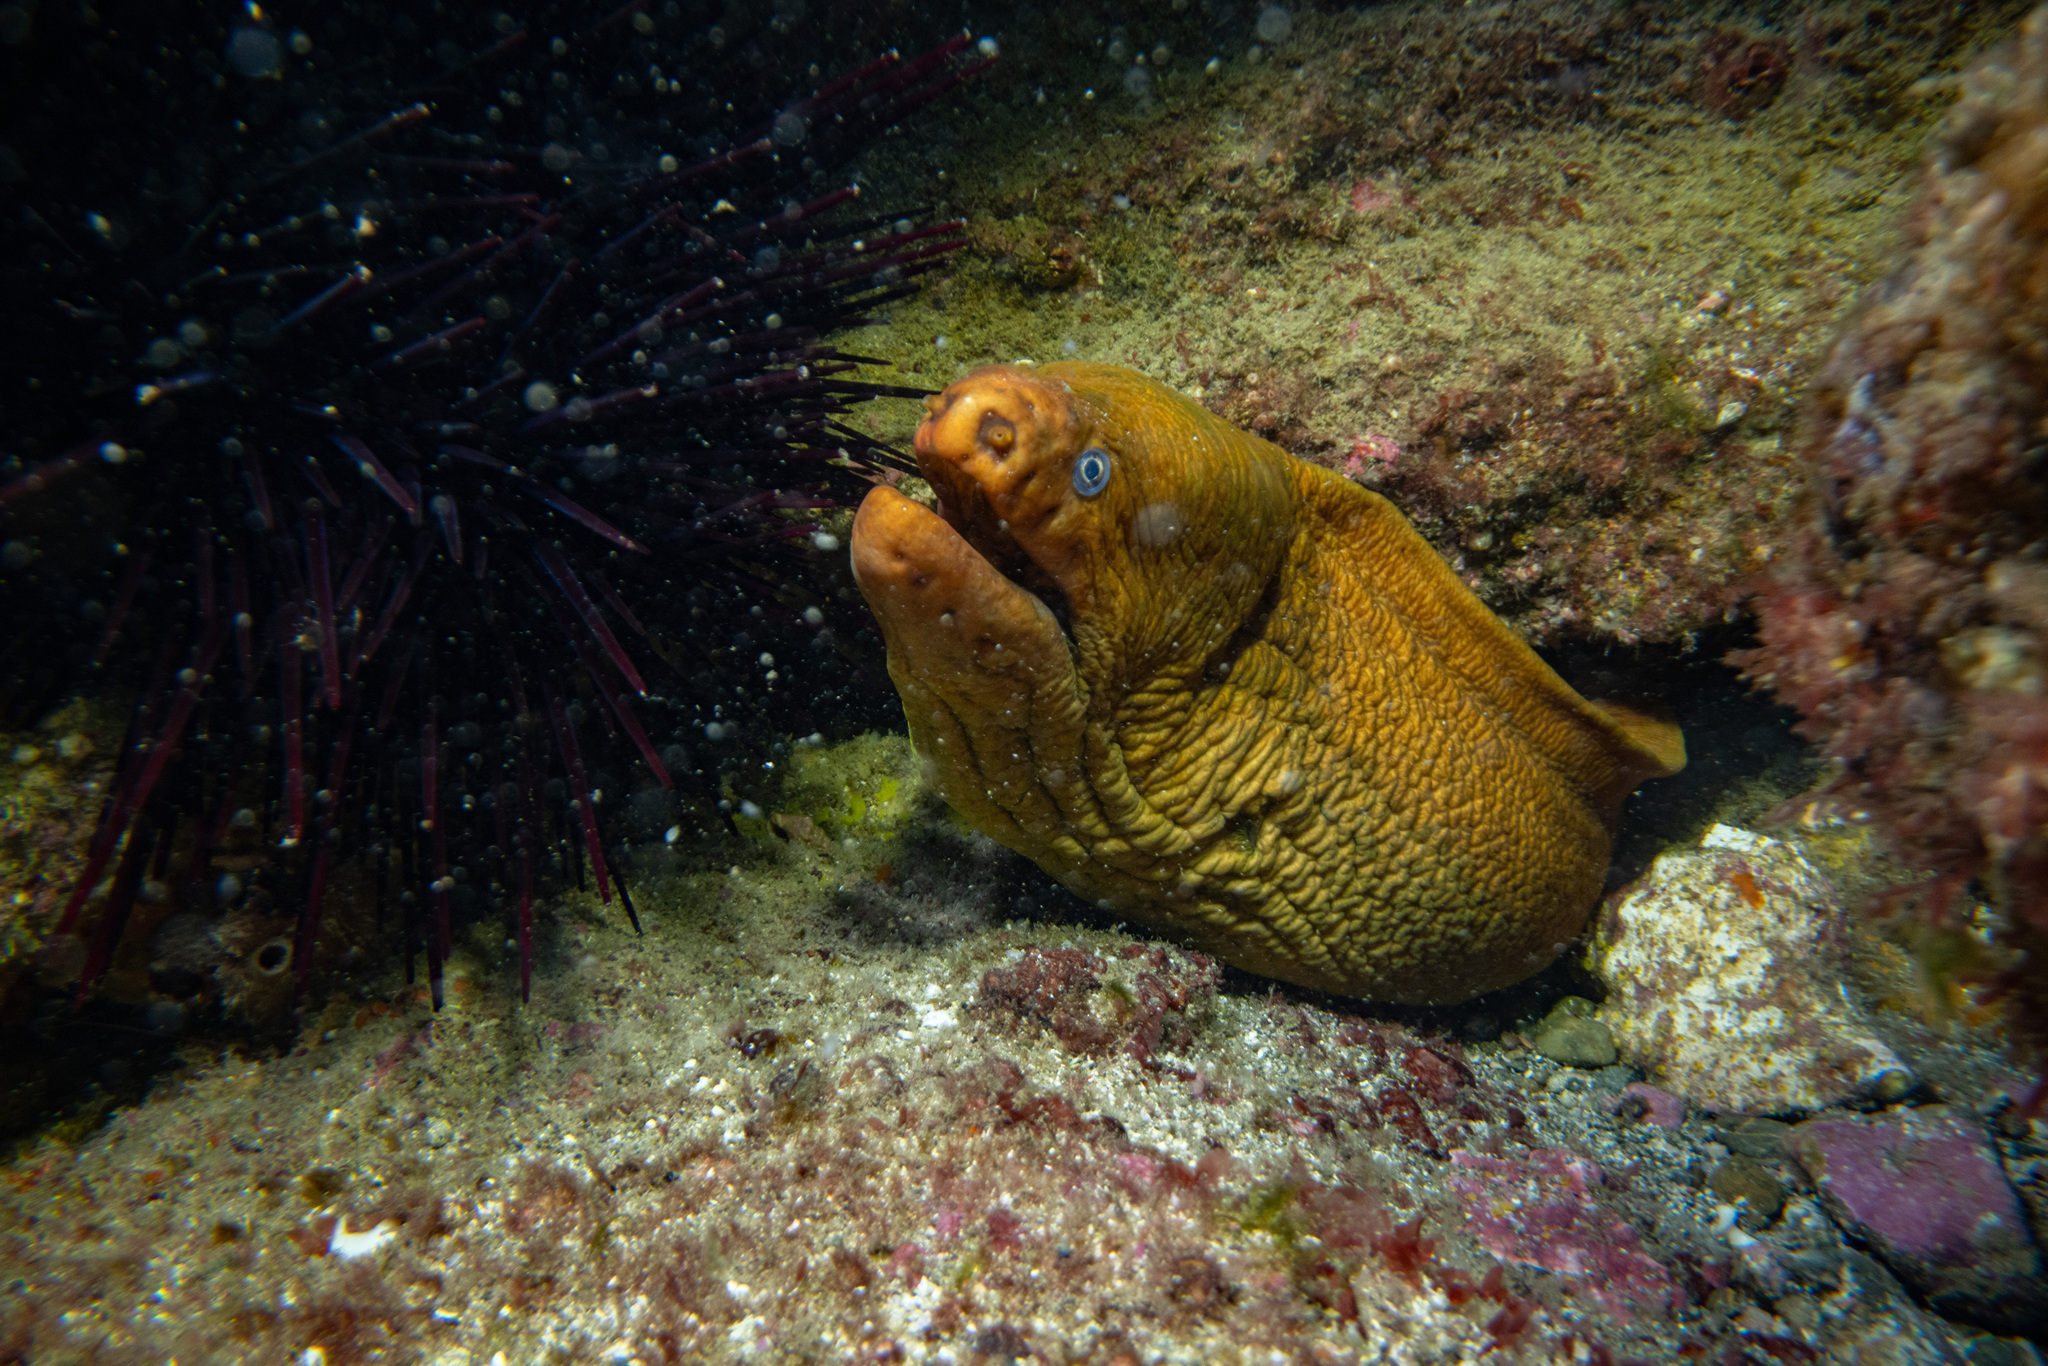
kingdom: Animalia
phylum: Chordata
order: Anguilliformes
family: Muraenidae
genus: Gymnothorax
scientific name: Gymnothorax prasinus
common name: Yellow moray
